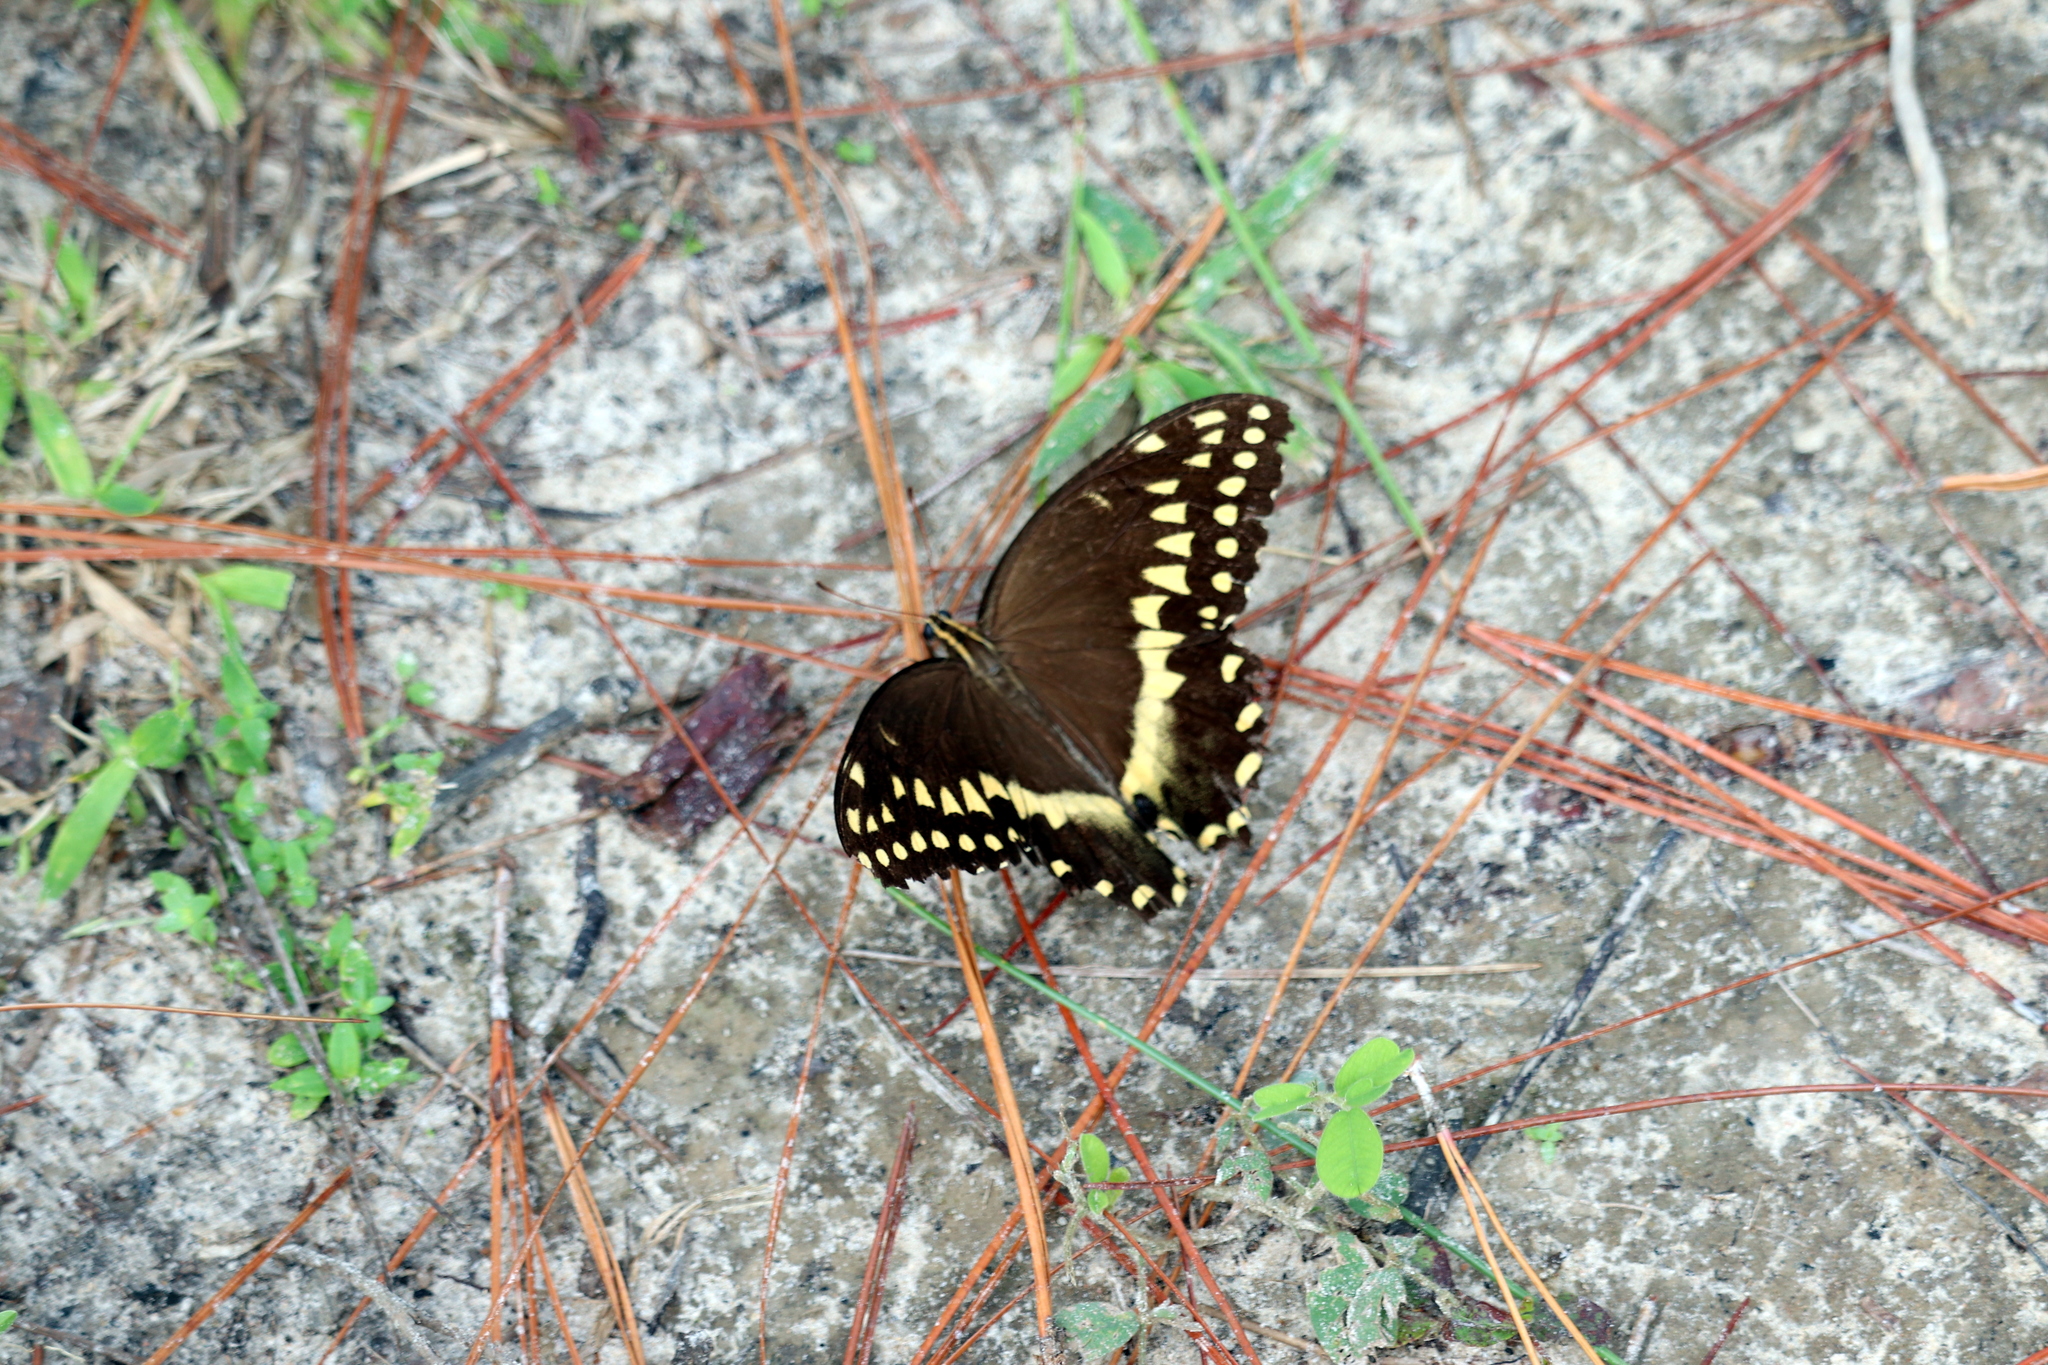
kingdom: Animalia
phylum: Arthropoda
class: Insecta
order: Lepidoptera
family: Papilionidae
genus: Papilio
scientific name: Papilio palamedes
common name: Palamedes swallowtail
